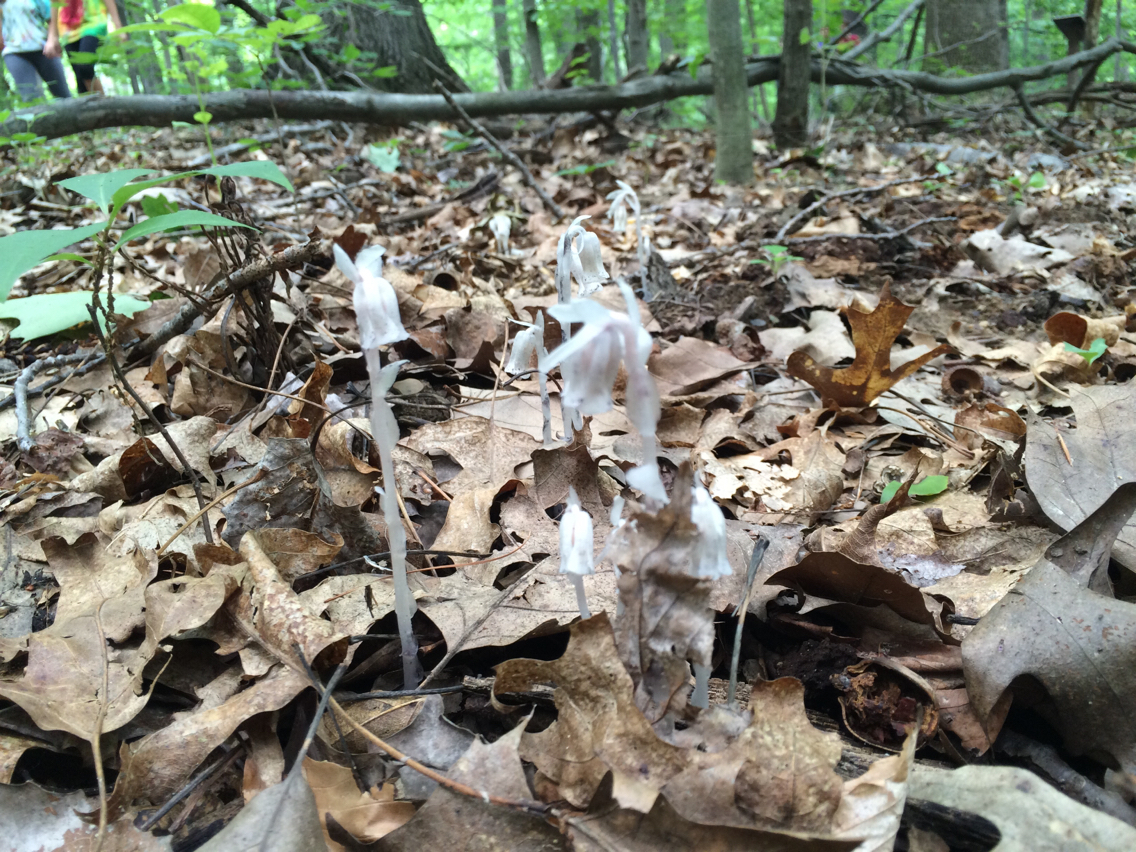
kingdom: Plantae
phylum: Tracheophyta
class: Magnoliopsida
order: Ericales
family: Ericaceae
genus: Monotropa
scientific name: Monotropa uniflora
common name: Convulsion root
